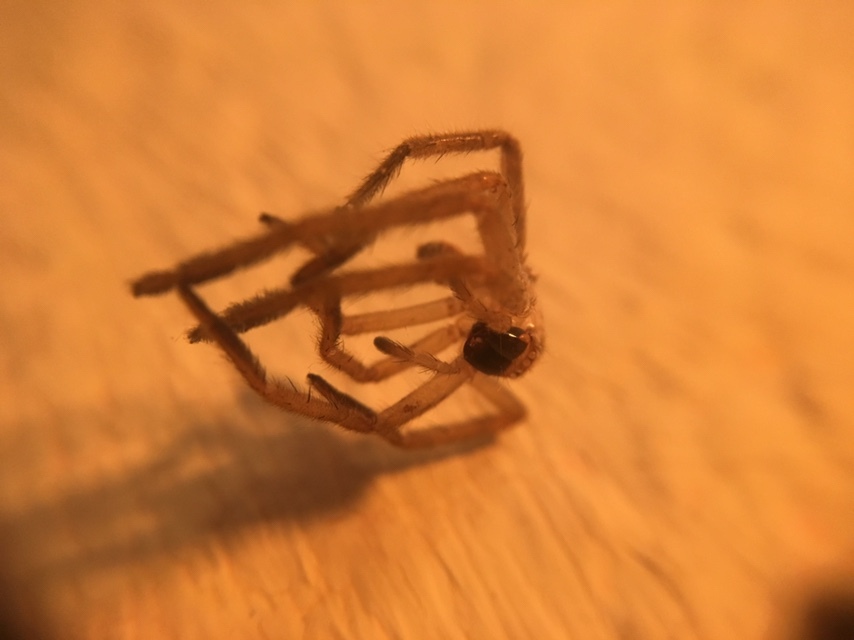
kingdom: Animalia
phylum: Arthropoda
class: Arachnida
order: Araneae
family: Sparassidae
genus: Olios
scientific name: Olios giganteus
